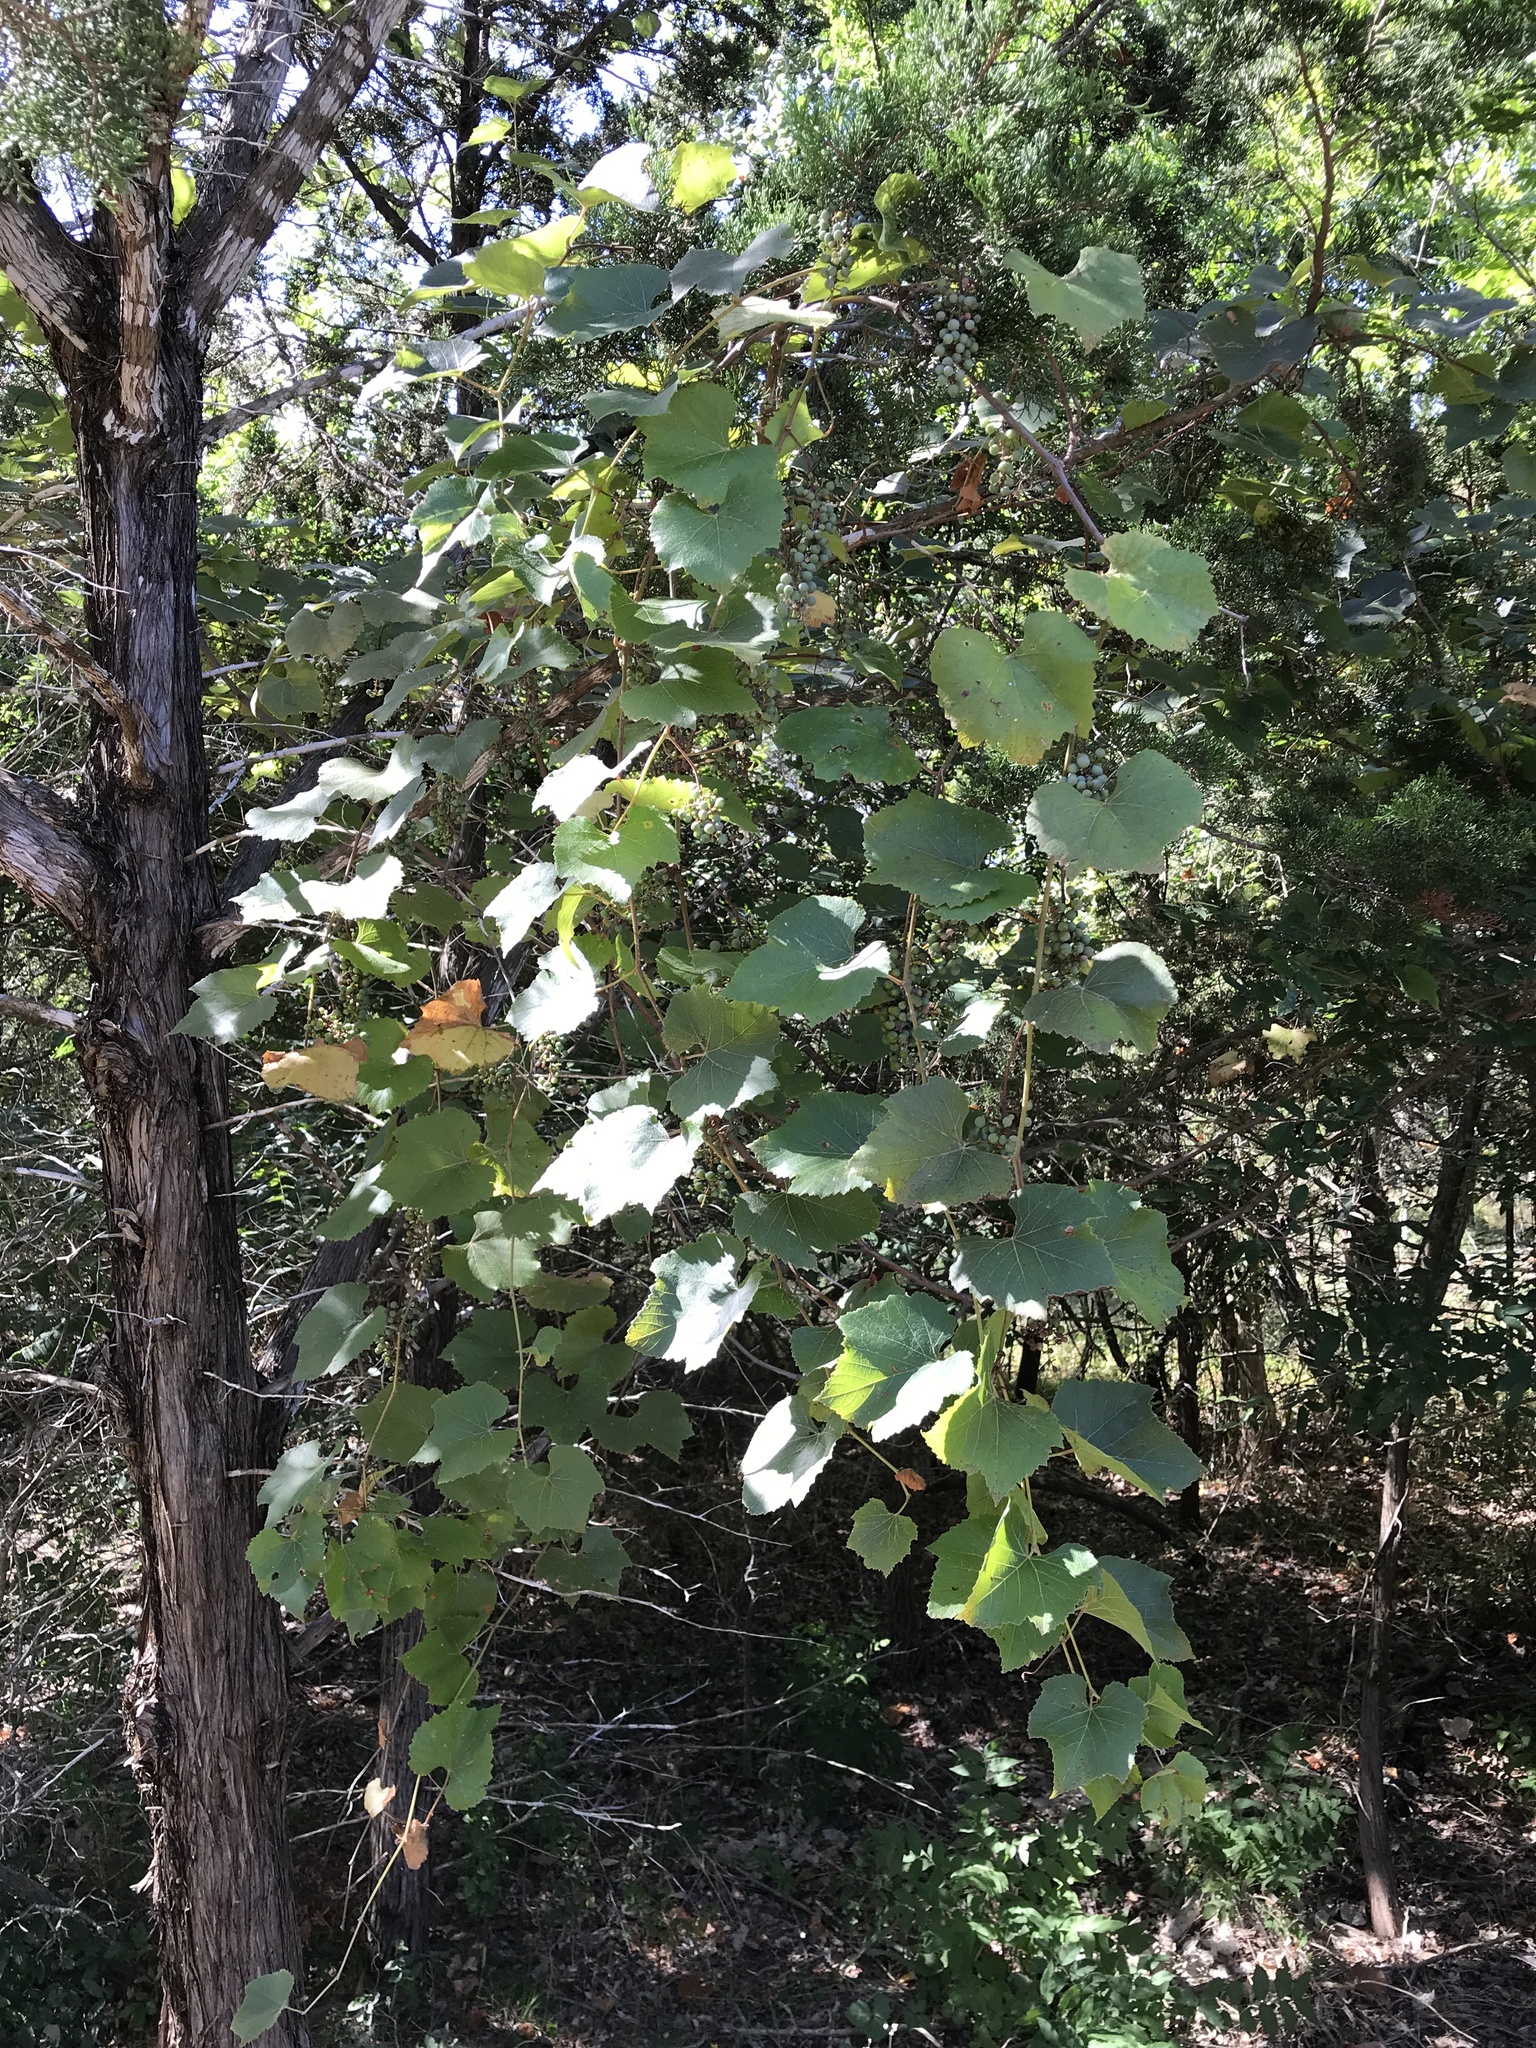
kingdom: Plantae
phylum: Tracheophyta
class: Magnoliopsida
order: Vitales
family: Vitaceae
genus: Vitis
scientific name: Vitis cinerea
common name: Ashy grape
